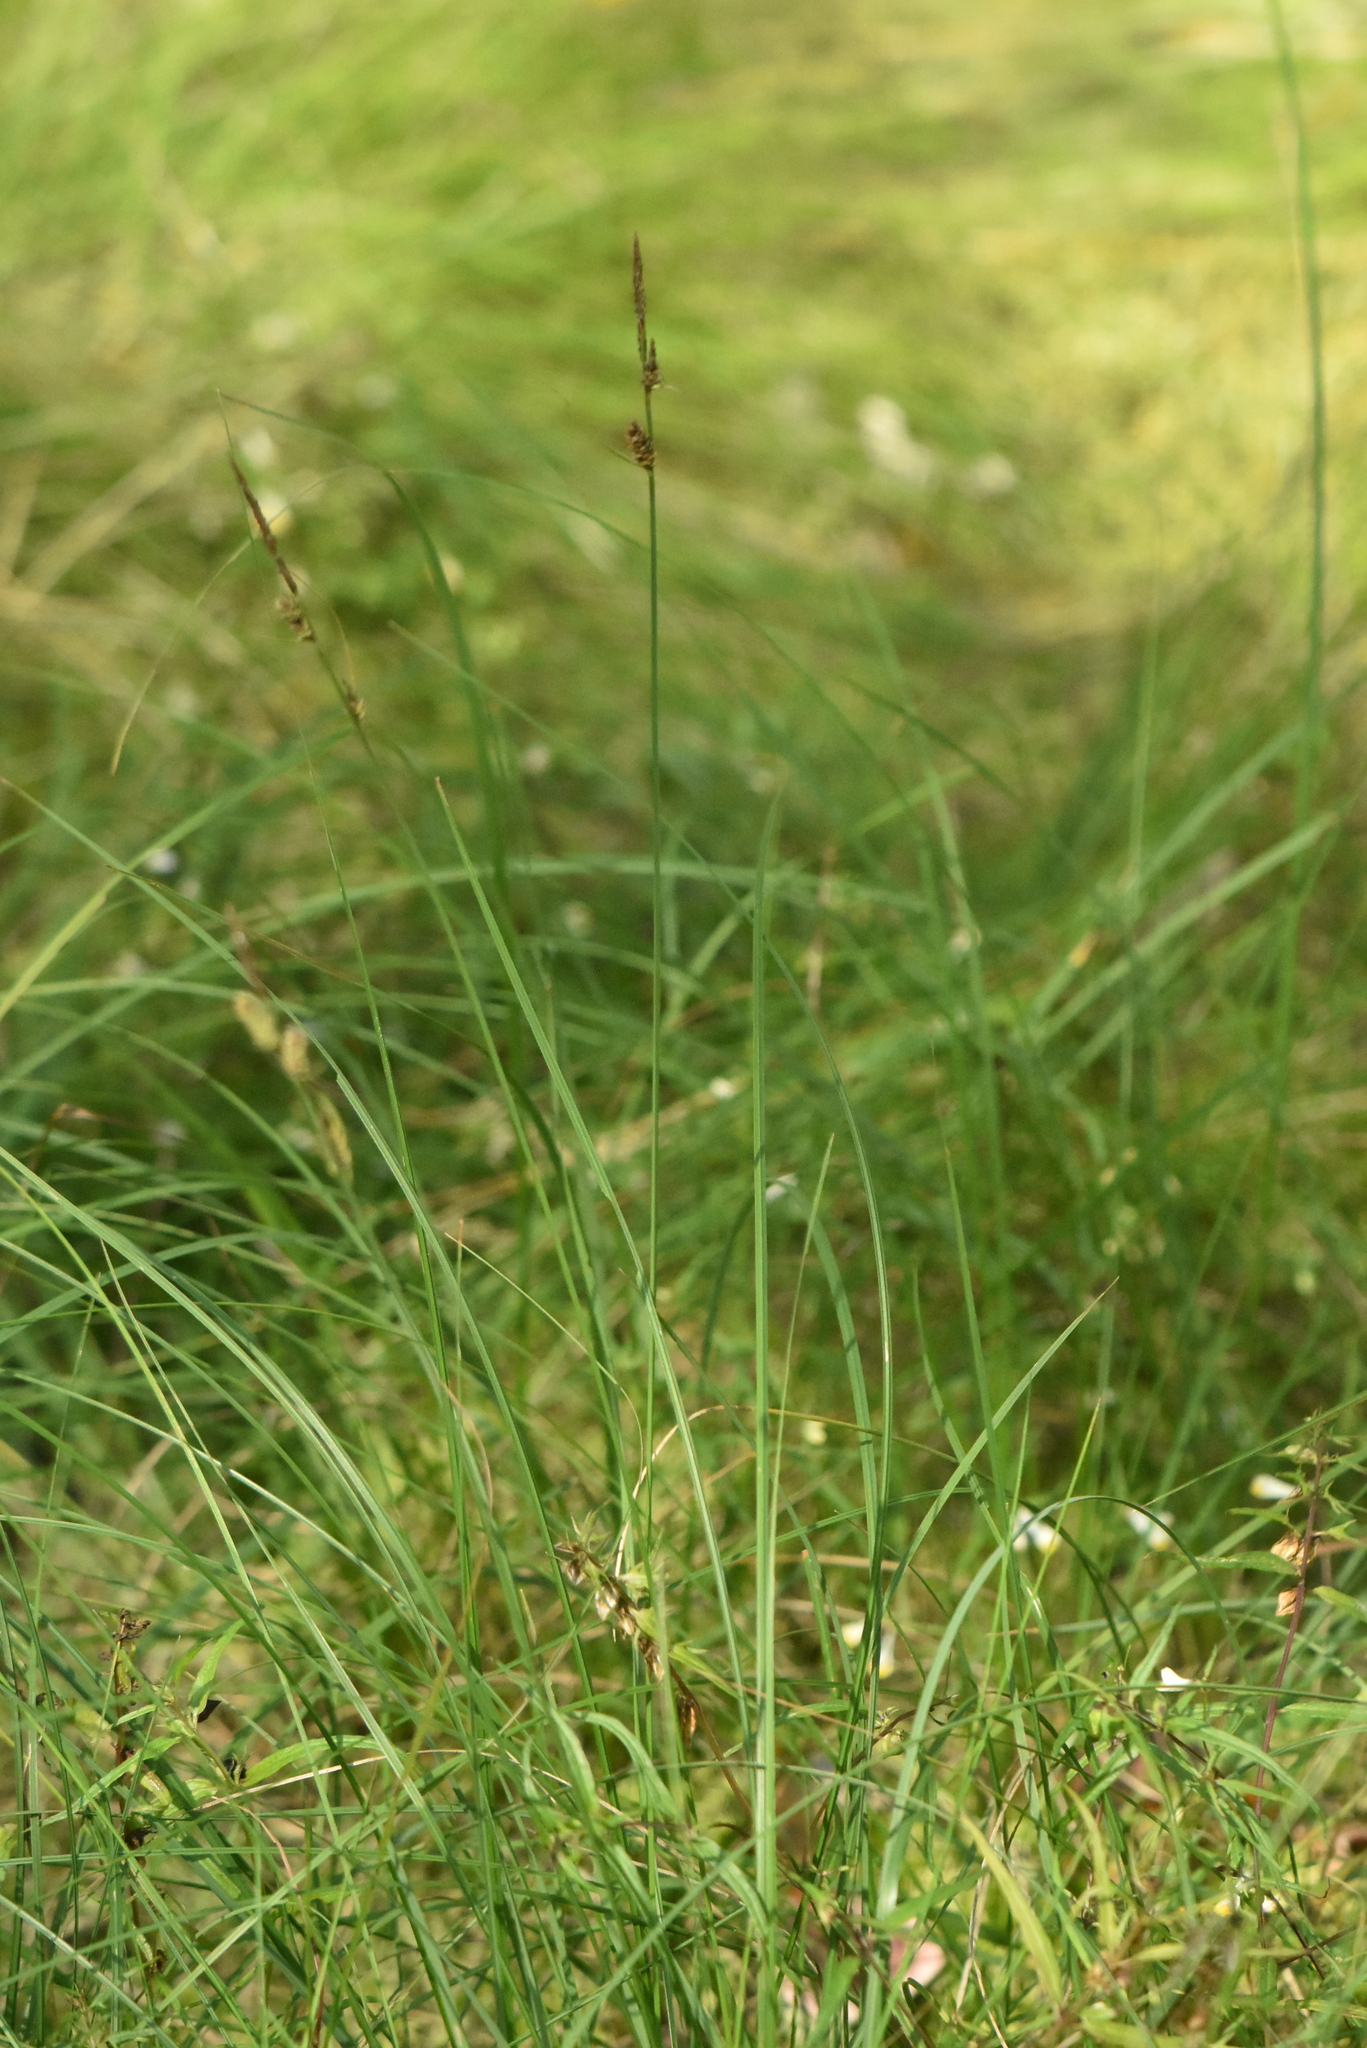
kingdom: Plantae
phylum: Tracheophyta
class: Liliopsida
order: Poales
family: Cyperaceae
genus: Carex
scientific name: Carex nigra
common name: Common sedge
